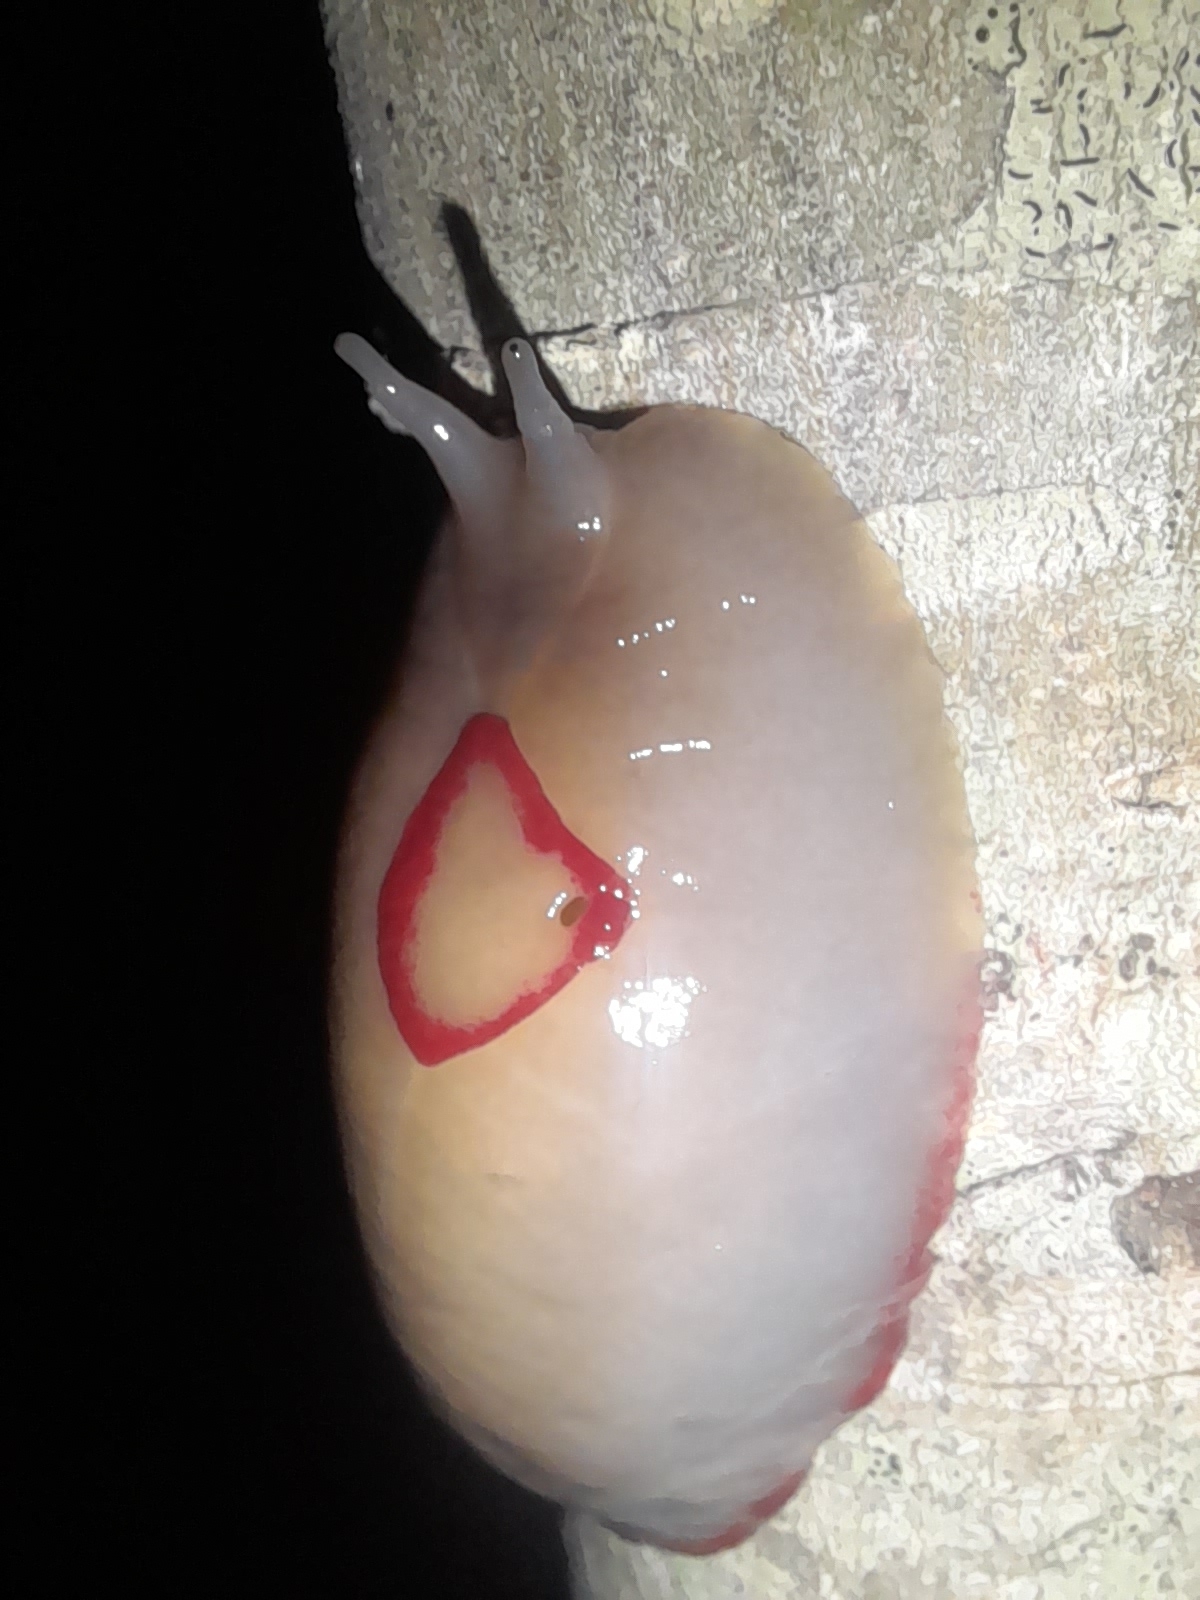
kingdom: Animalia
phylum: Mollusca
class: Gastropoda
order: Stylommatophora
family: Athoracophoridae
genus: Triboniophorus
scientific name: Triboniophorus graeffei
